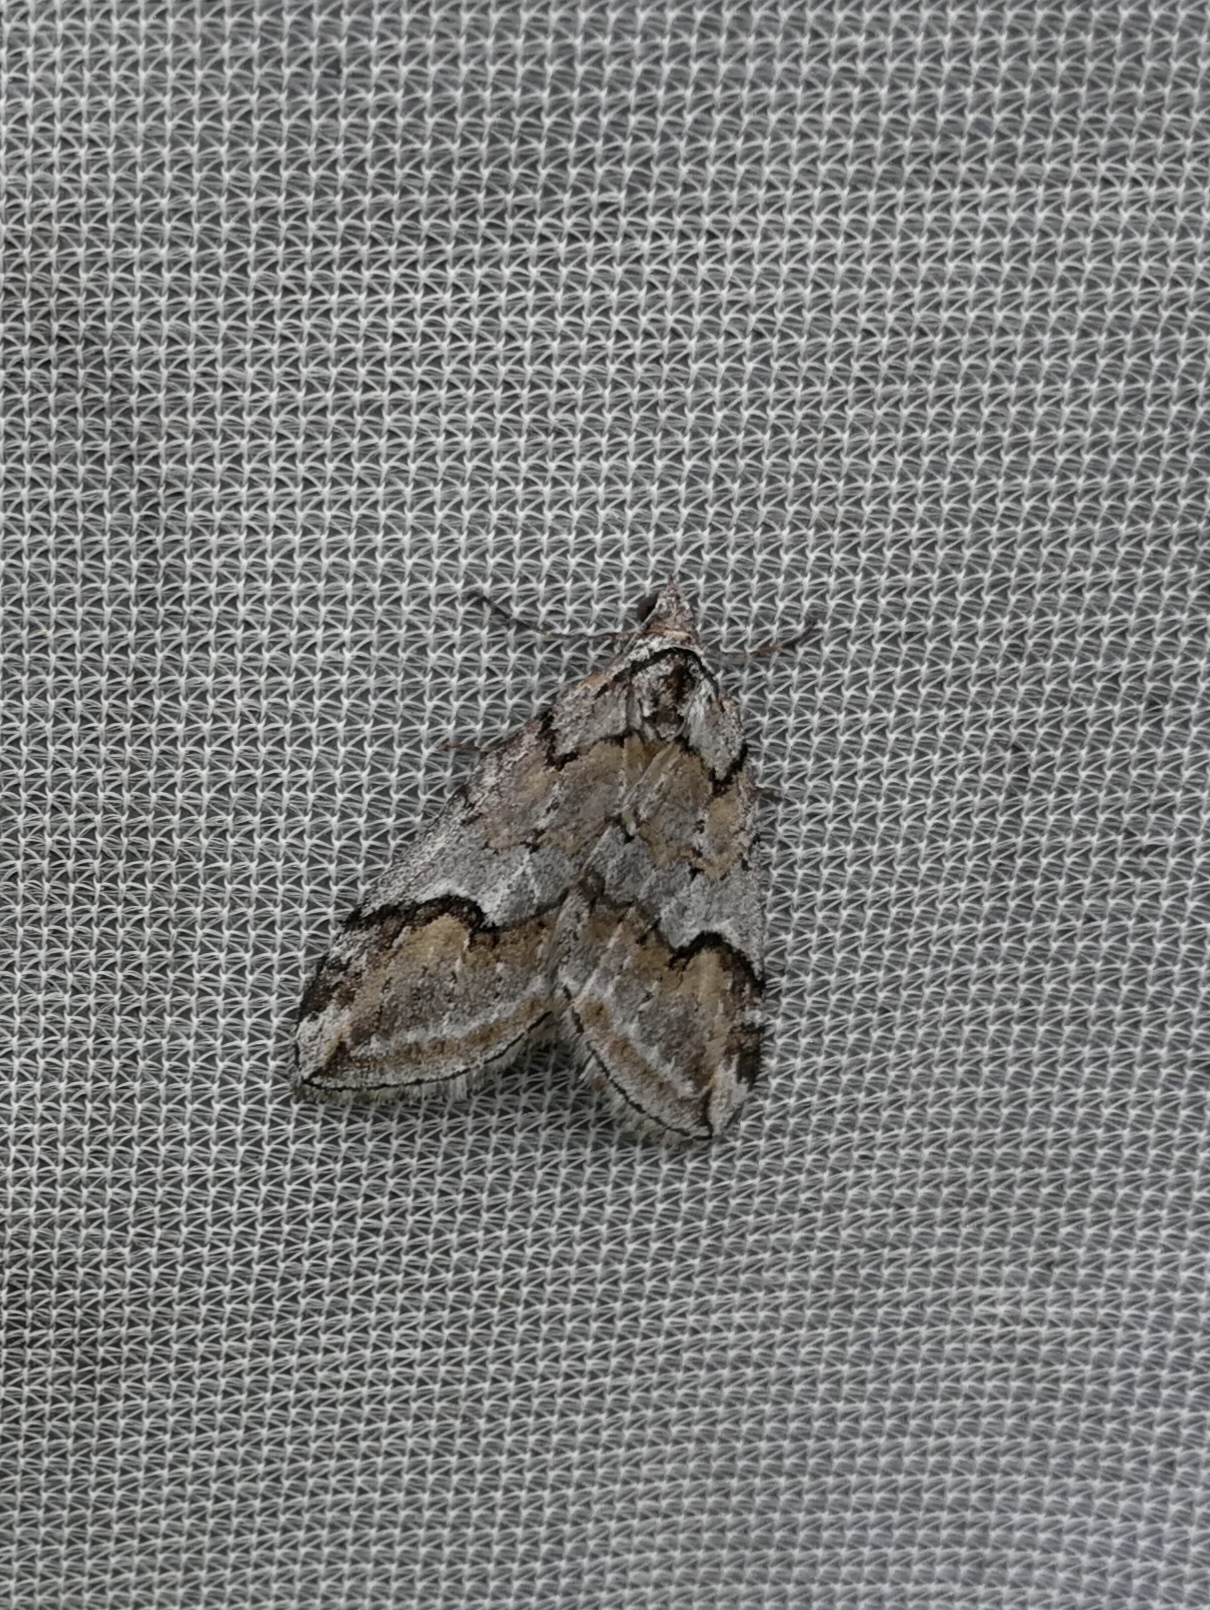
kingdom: Animalia
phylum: Arthropoda
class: Insecta
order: Lepidoptera
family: Geometridae
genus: Chesias
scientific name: Chesias rufata
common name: Broom-tip
